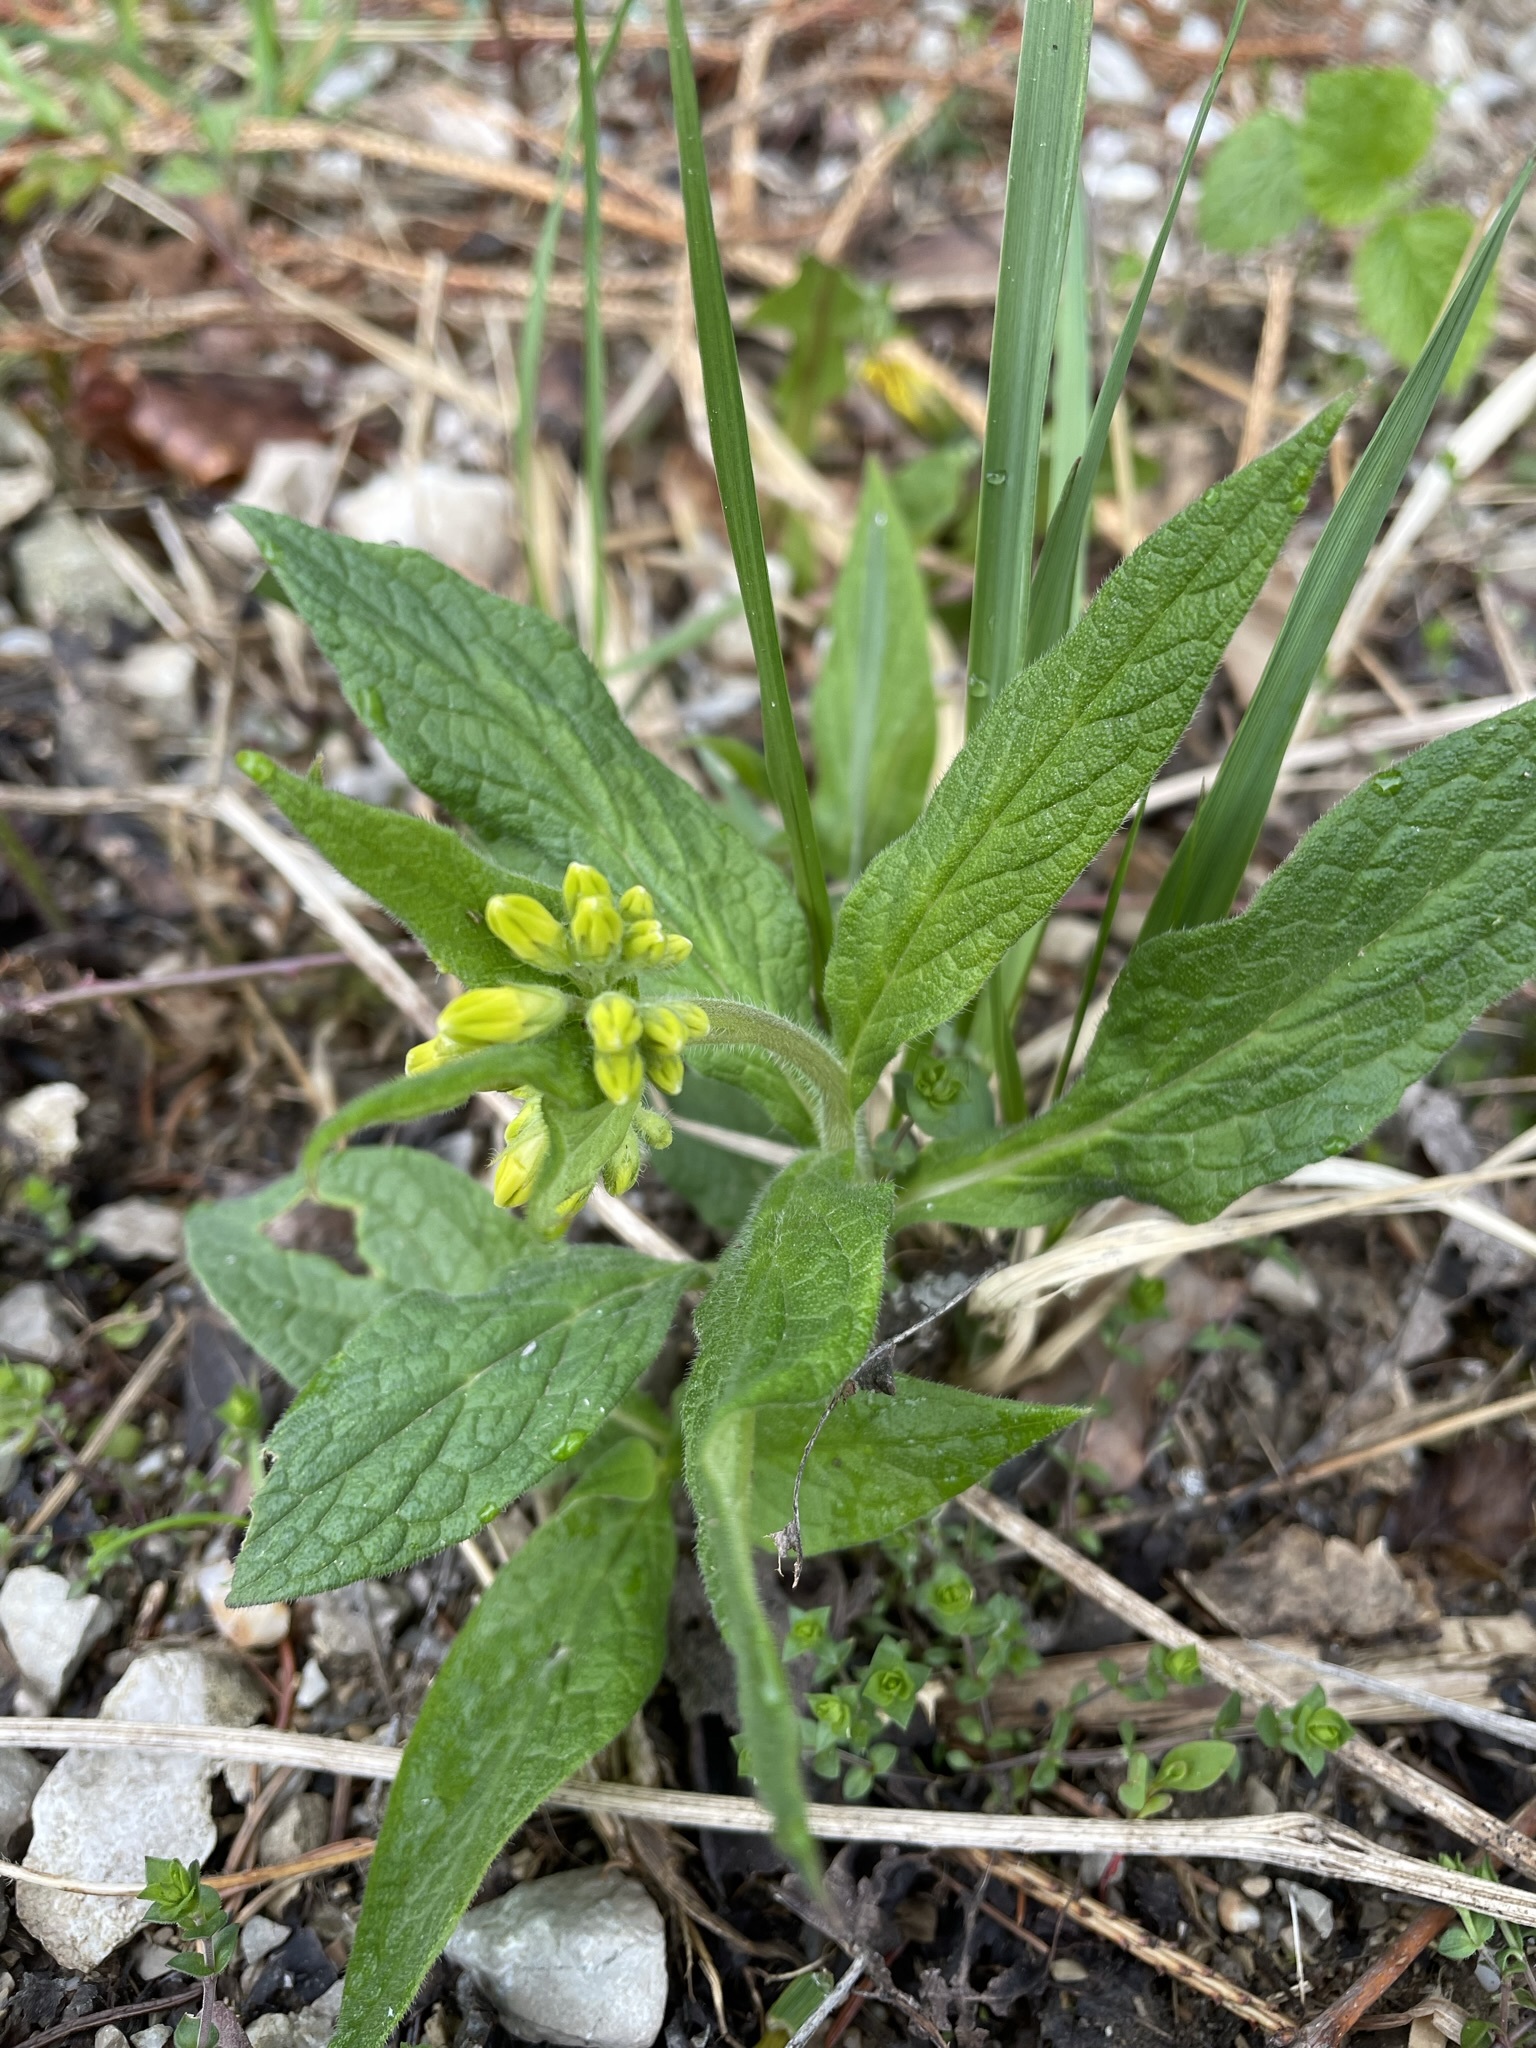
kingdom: Plantae
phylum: Tracheophyta
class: Magnoliopsida
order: Boraginales
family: Boraginaceae
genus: Symphytum
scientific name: Symphytum tuberosum
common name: Tuberous comfrey
